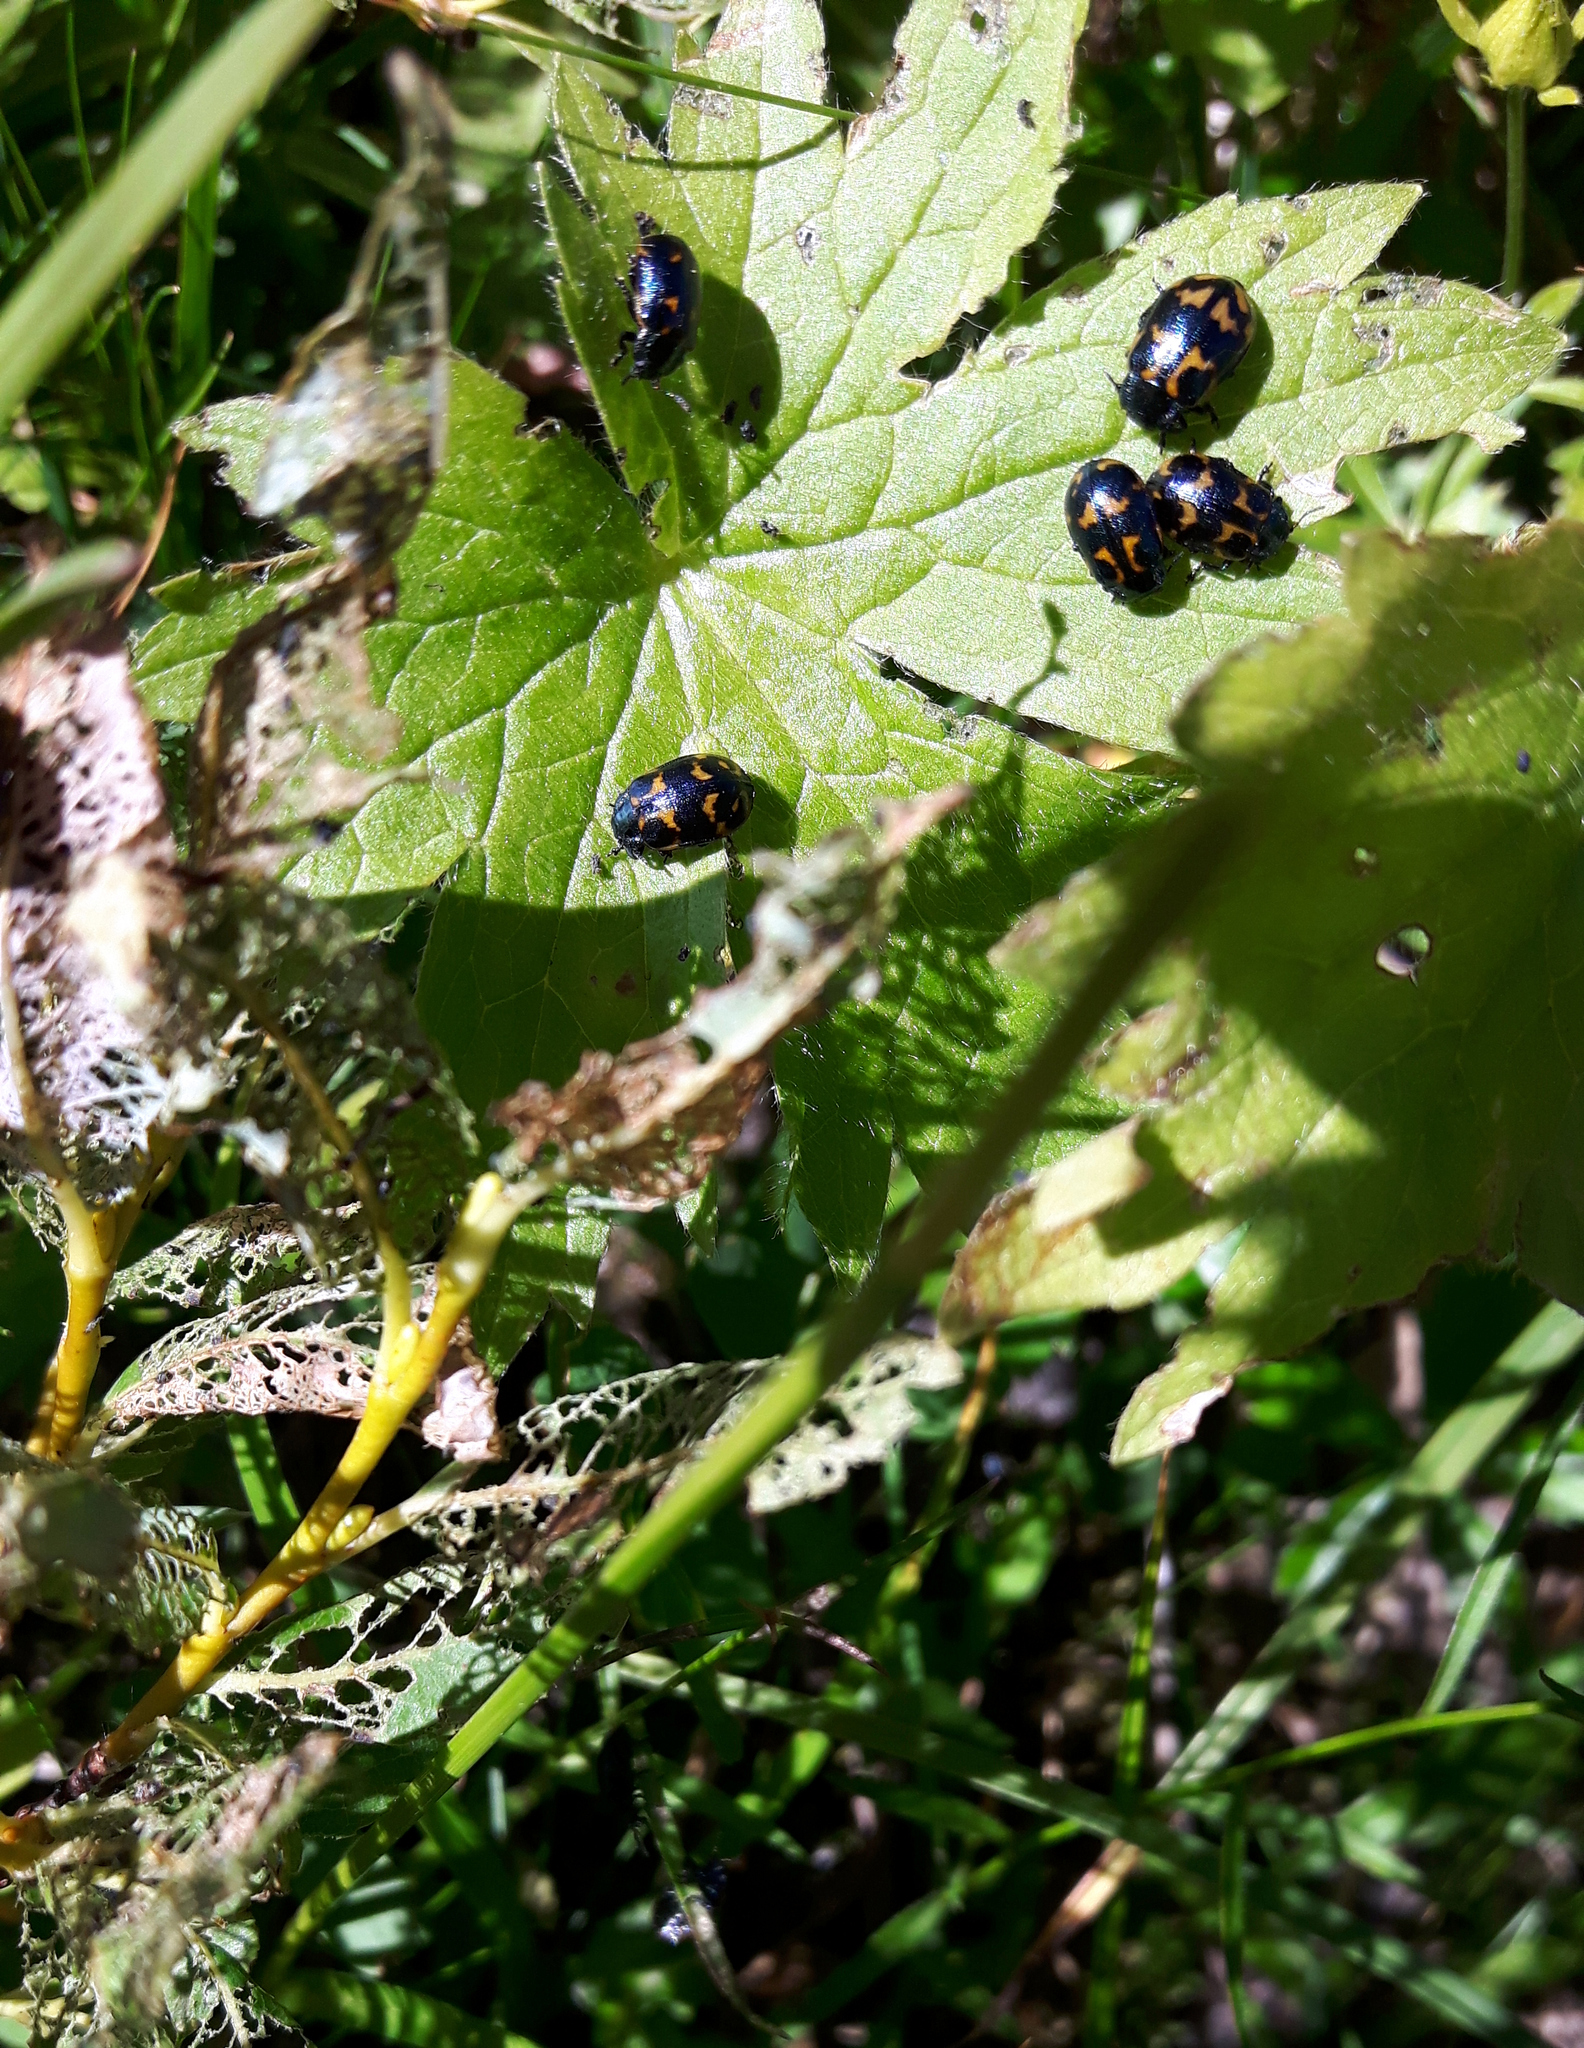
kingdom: Animalia
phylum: Arthropoda
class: Insecta
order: Coleoptera
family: Chrysomelidae
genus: Chrysomela
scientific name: Chrysomela lapponica
